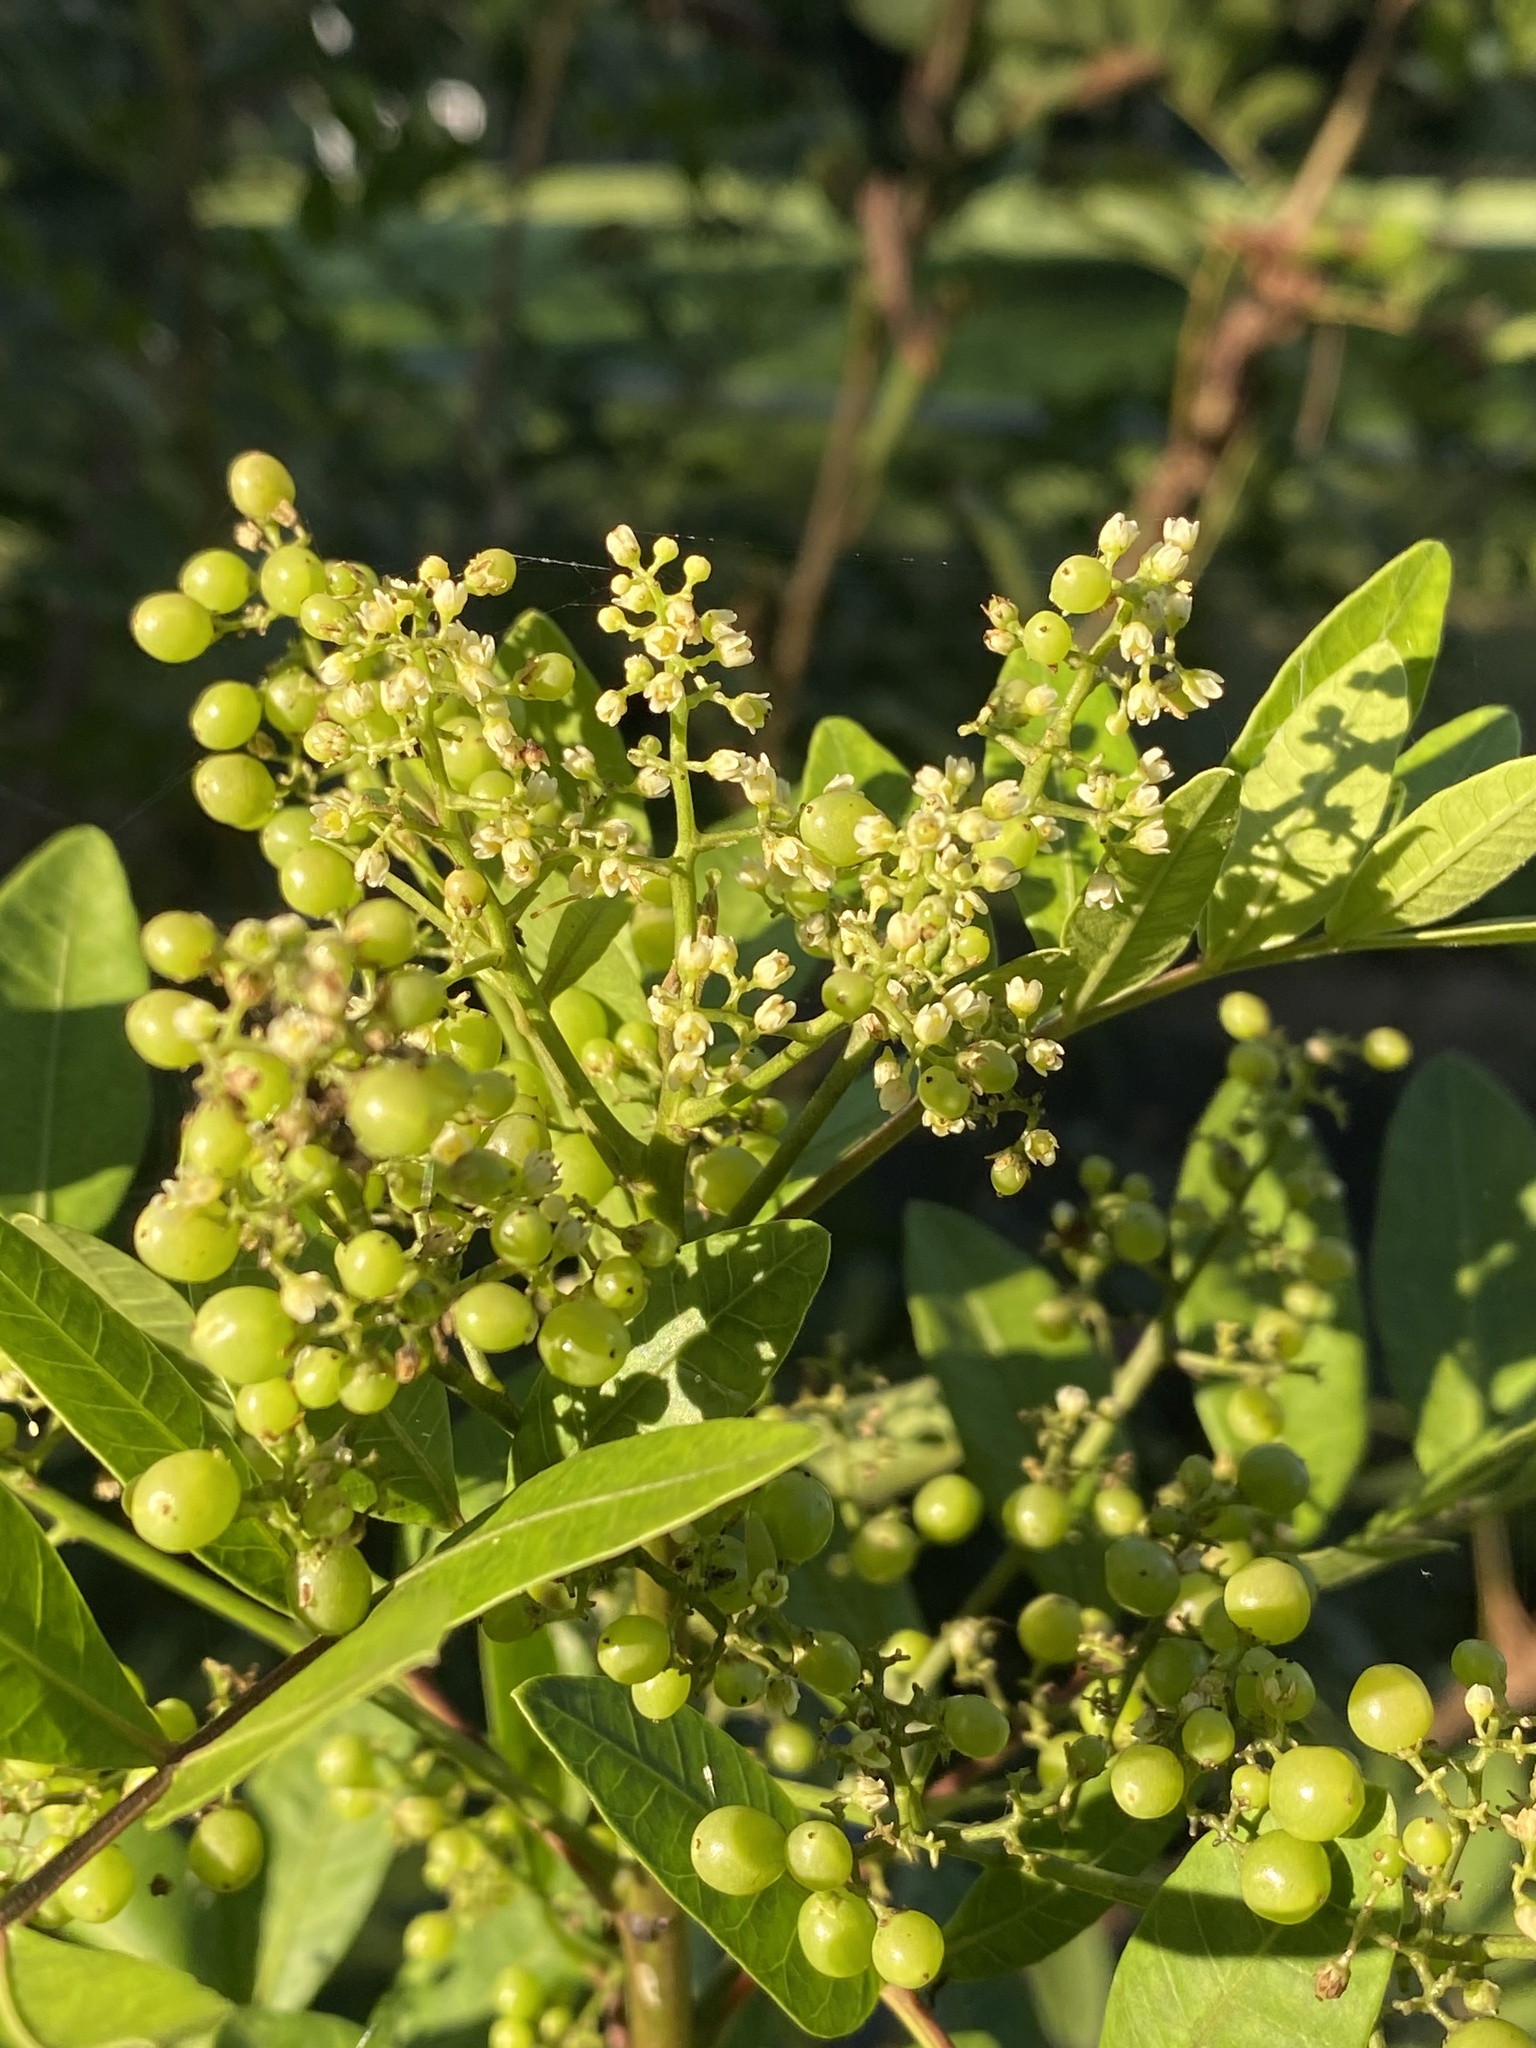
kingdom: Plantae
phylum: Tracheophyta
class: Magnoliopsida
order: Sapindales
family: Anacardiaceae
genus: Schinus
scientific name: Schinus terebinthifolia
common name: Brazilian peppertree
